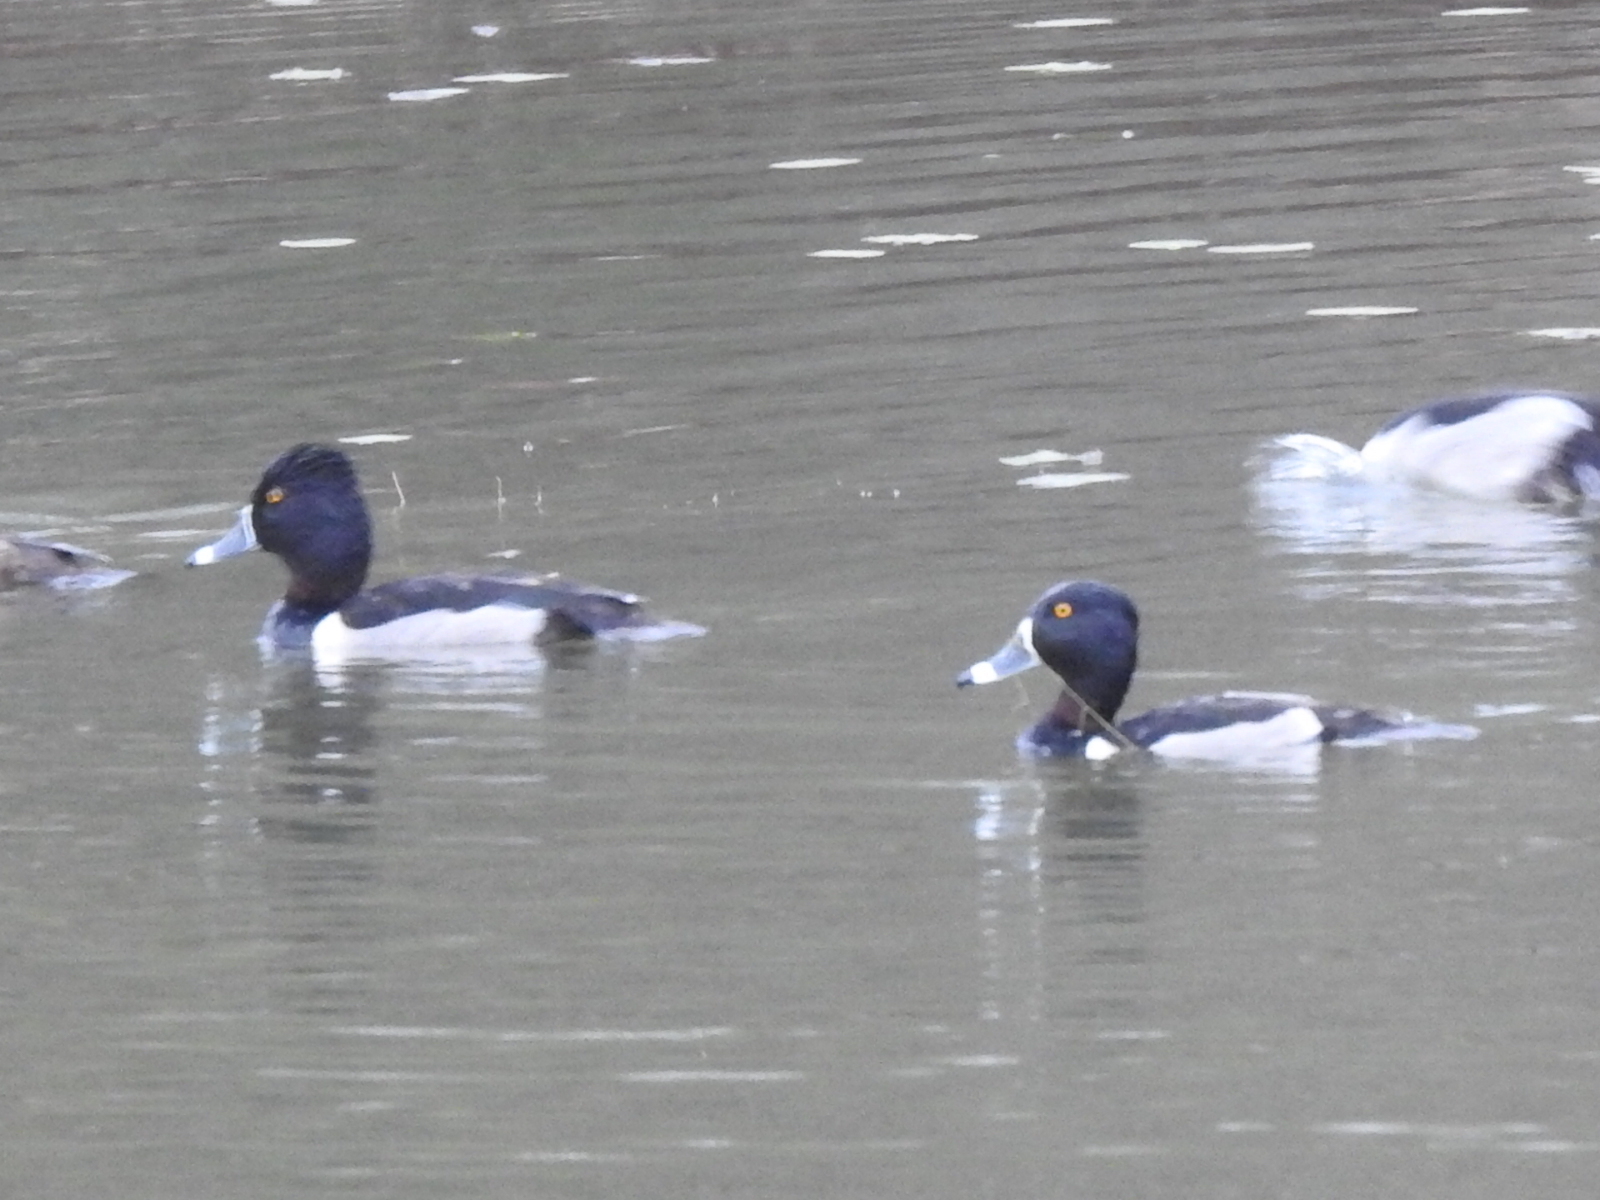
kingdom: Animalia
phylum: Chordata
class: Aves
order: Anseriformes
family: Anatidae
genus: Aythya
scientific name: Aythya collaris
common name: Ring-necked duck
